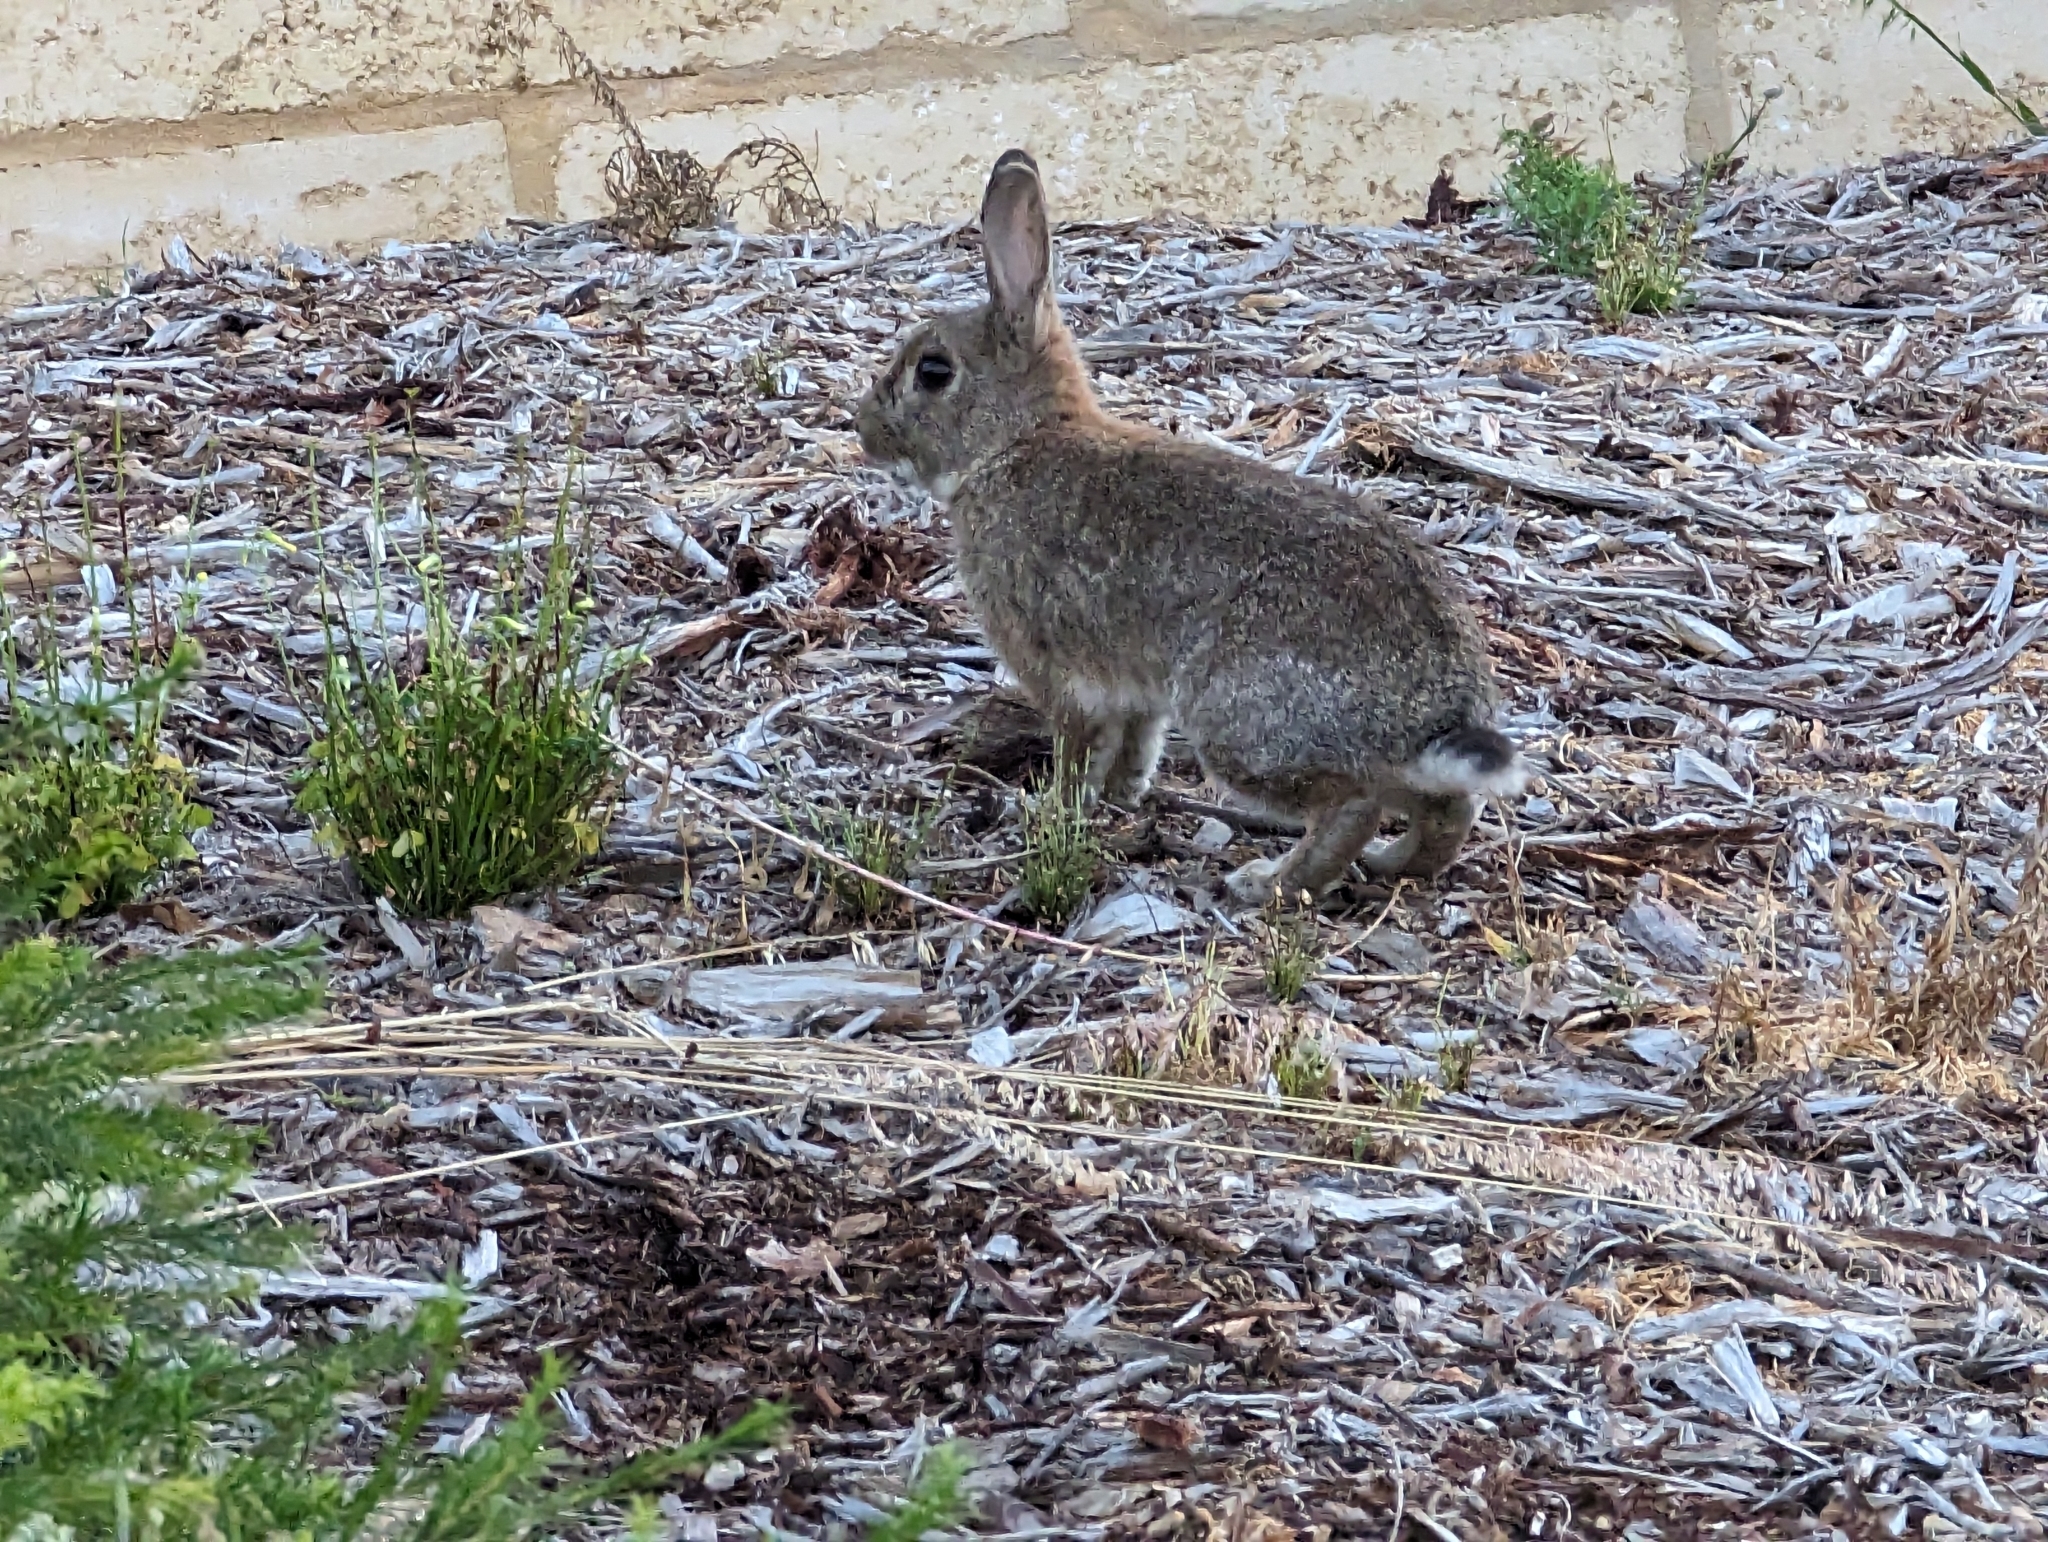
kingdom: Animalia
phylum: Chordata
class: Mammalia
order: Lagomorpha
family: Leporidae
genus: Oryctolagus
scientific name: Oryctolagus cuniculus
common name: European rabbit
